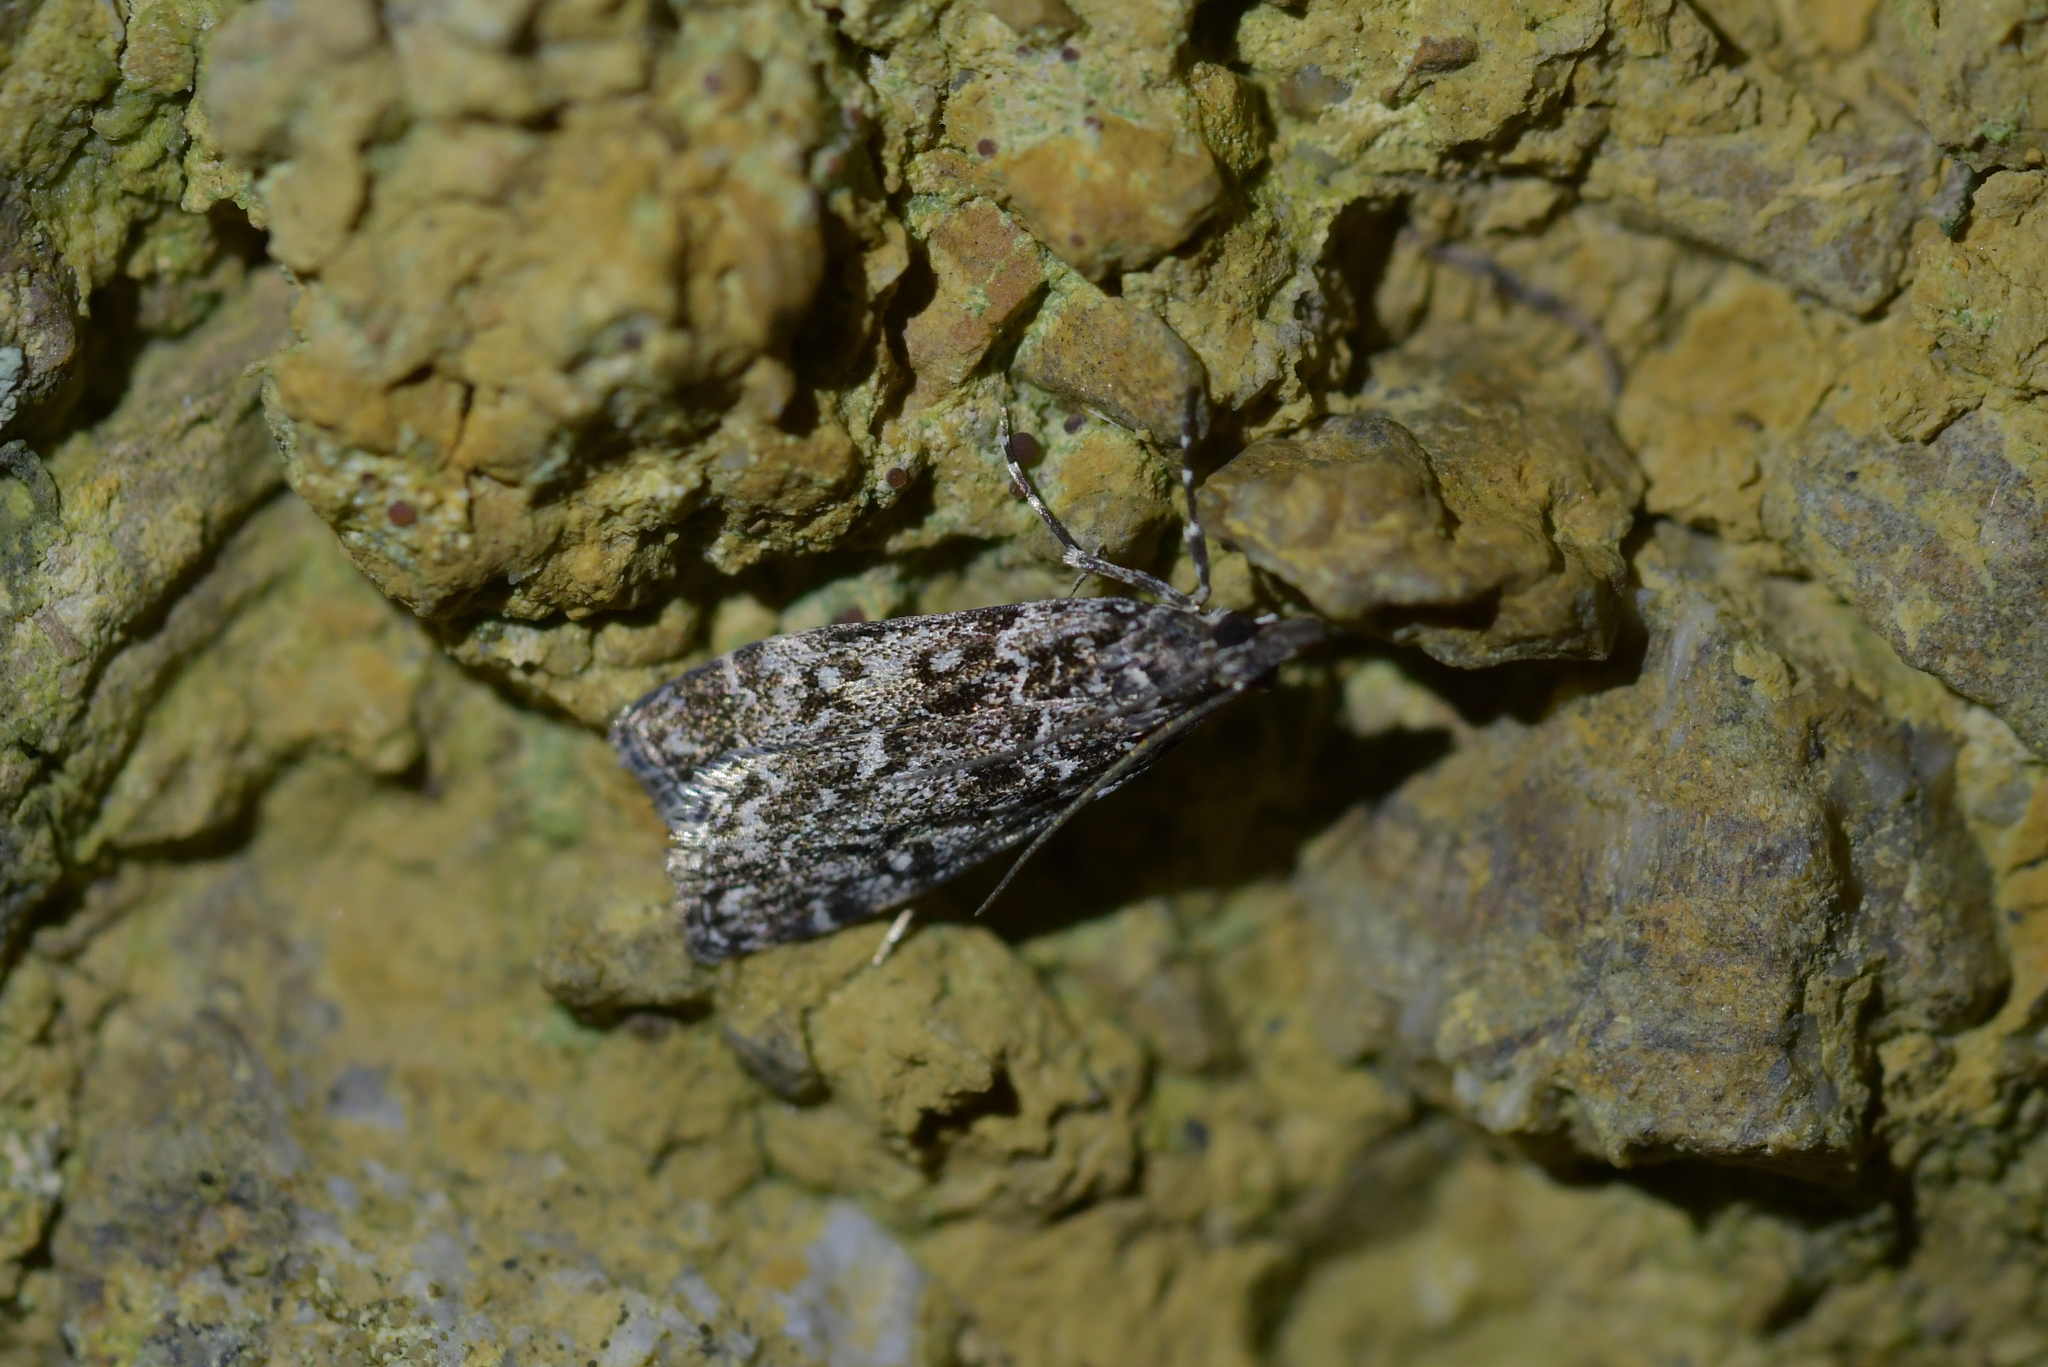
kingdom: Animalia
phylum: Arthropoda
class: Insecta
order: Lepidoptera
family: Crambidae
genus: Eudonia
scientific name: Eudonia philerga
